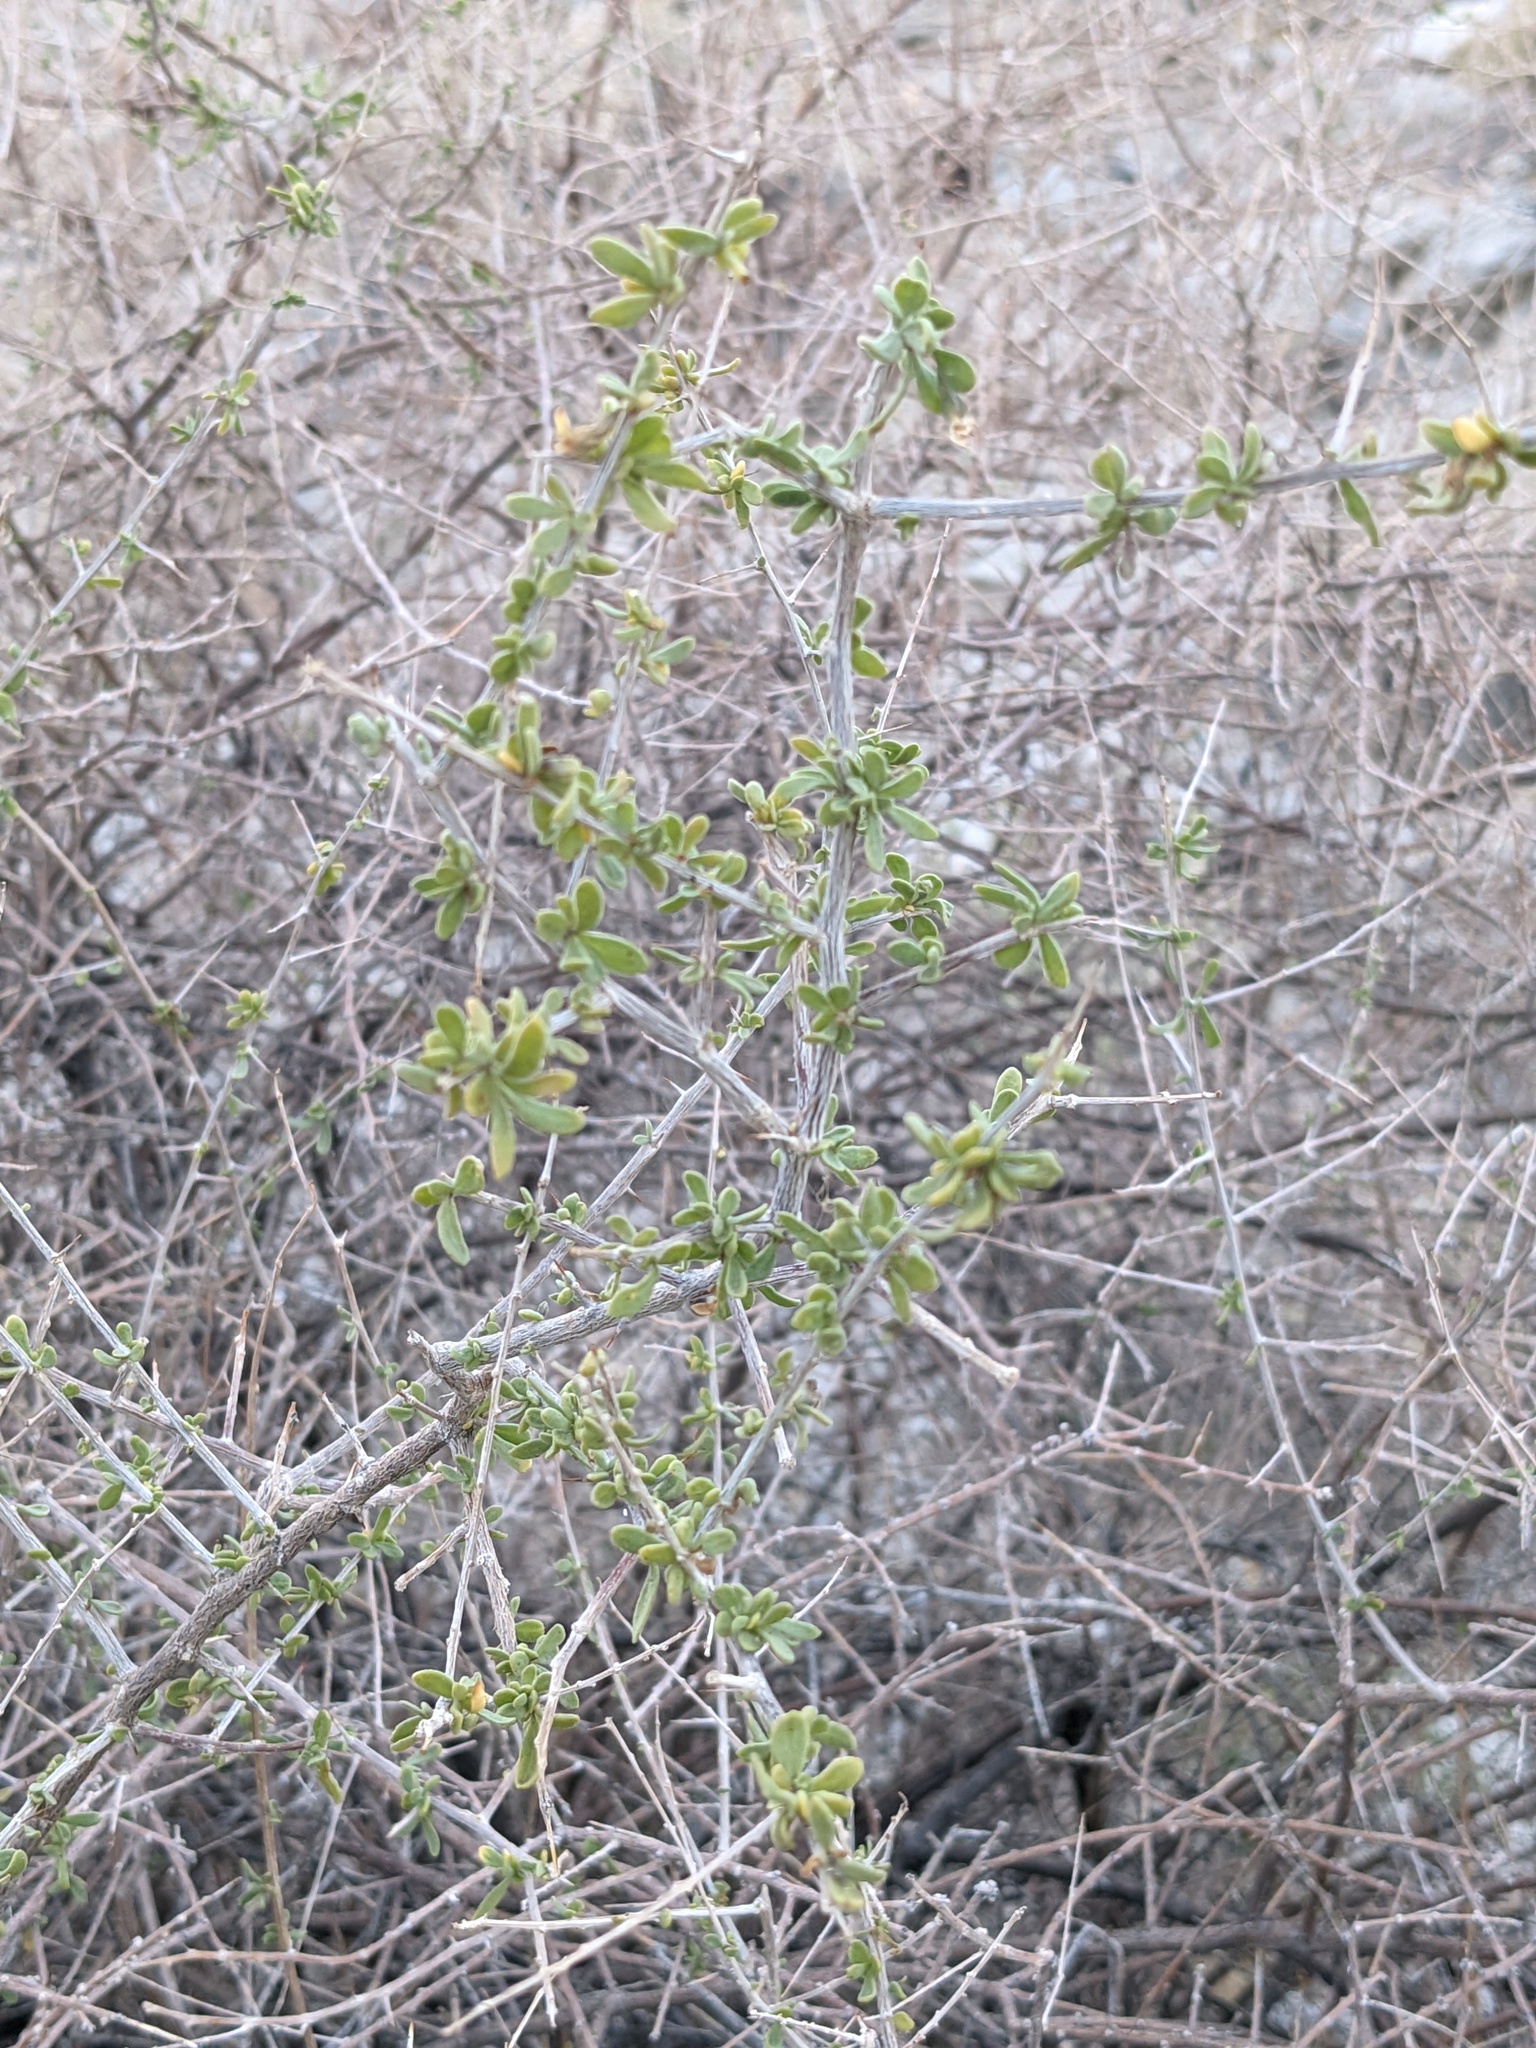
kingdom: Plantae
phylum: Tracheophyta
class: Magnoliopsida
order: Solanales
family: Solanaceae
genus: Lycium
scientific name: Lycium parishii
